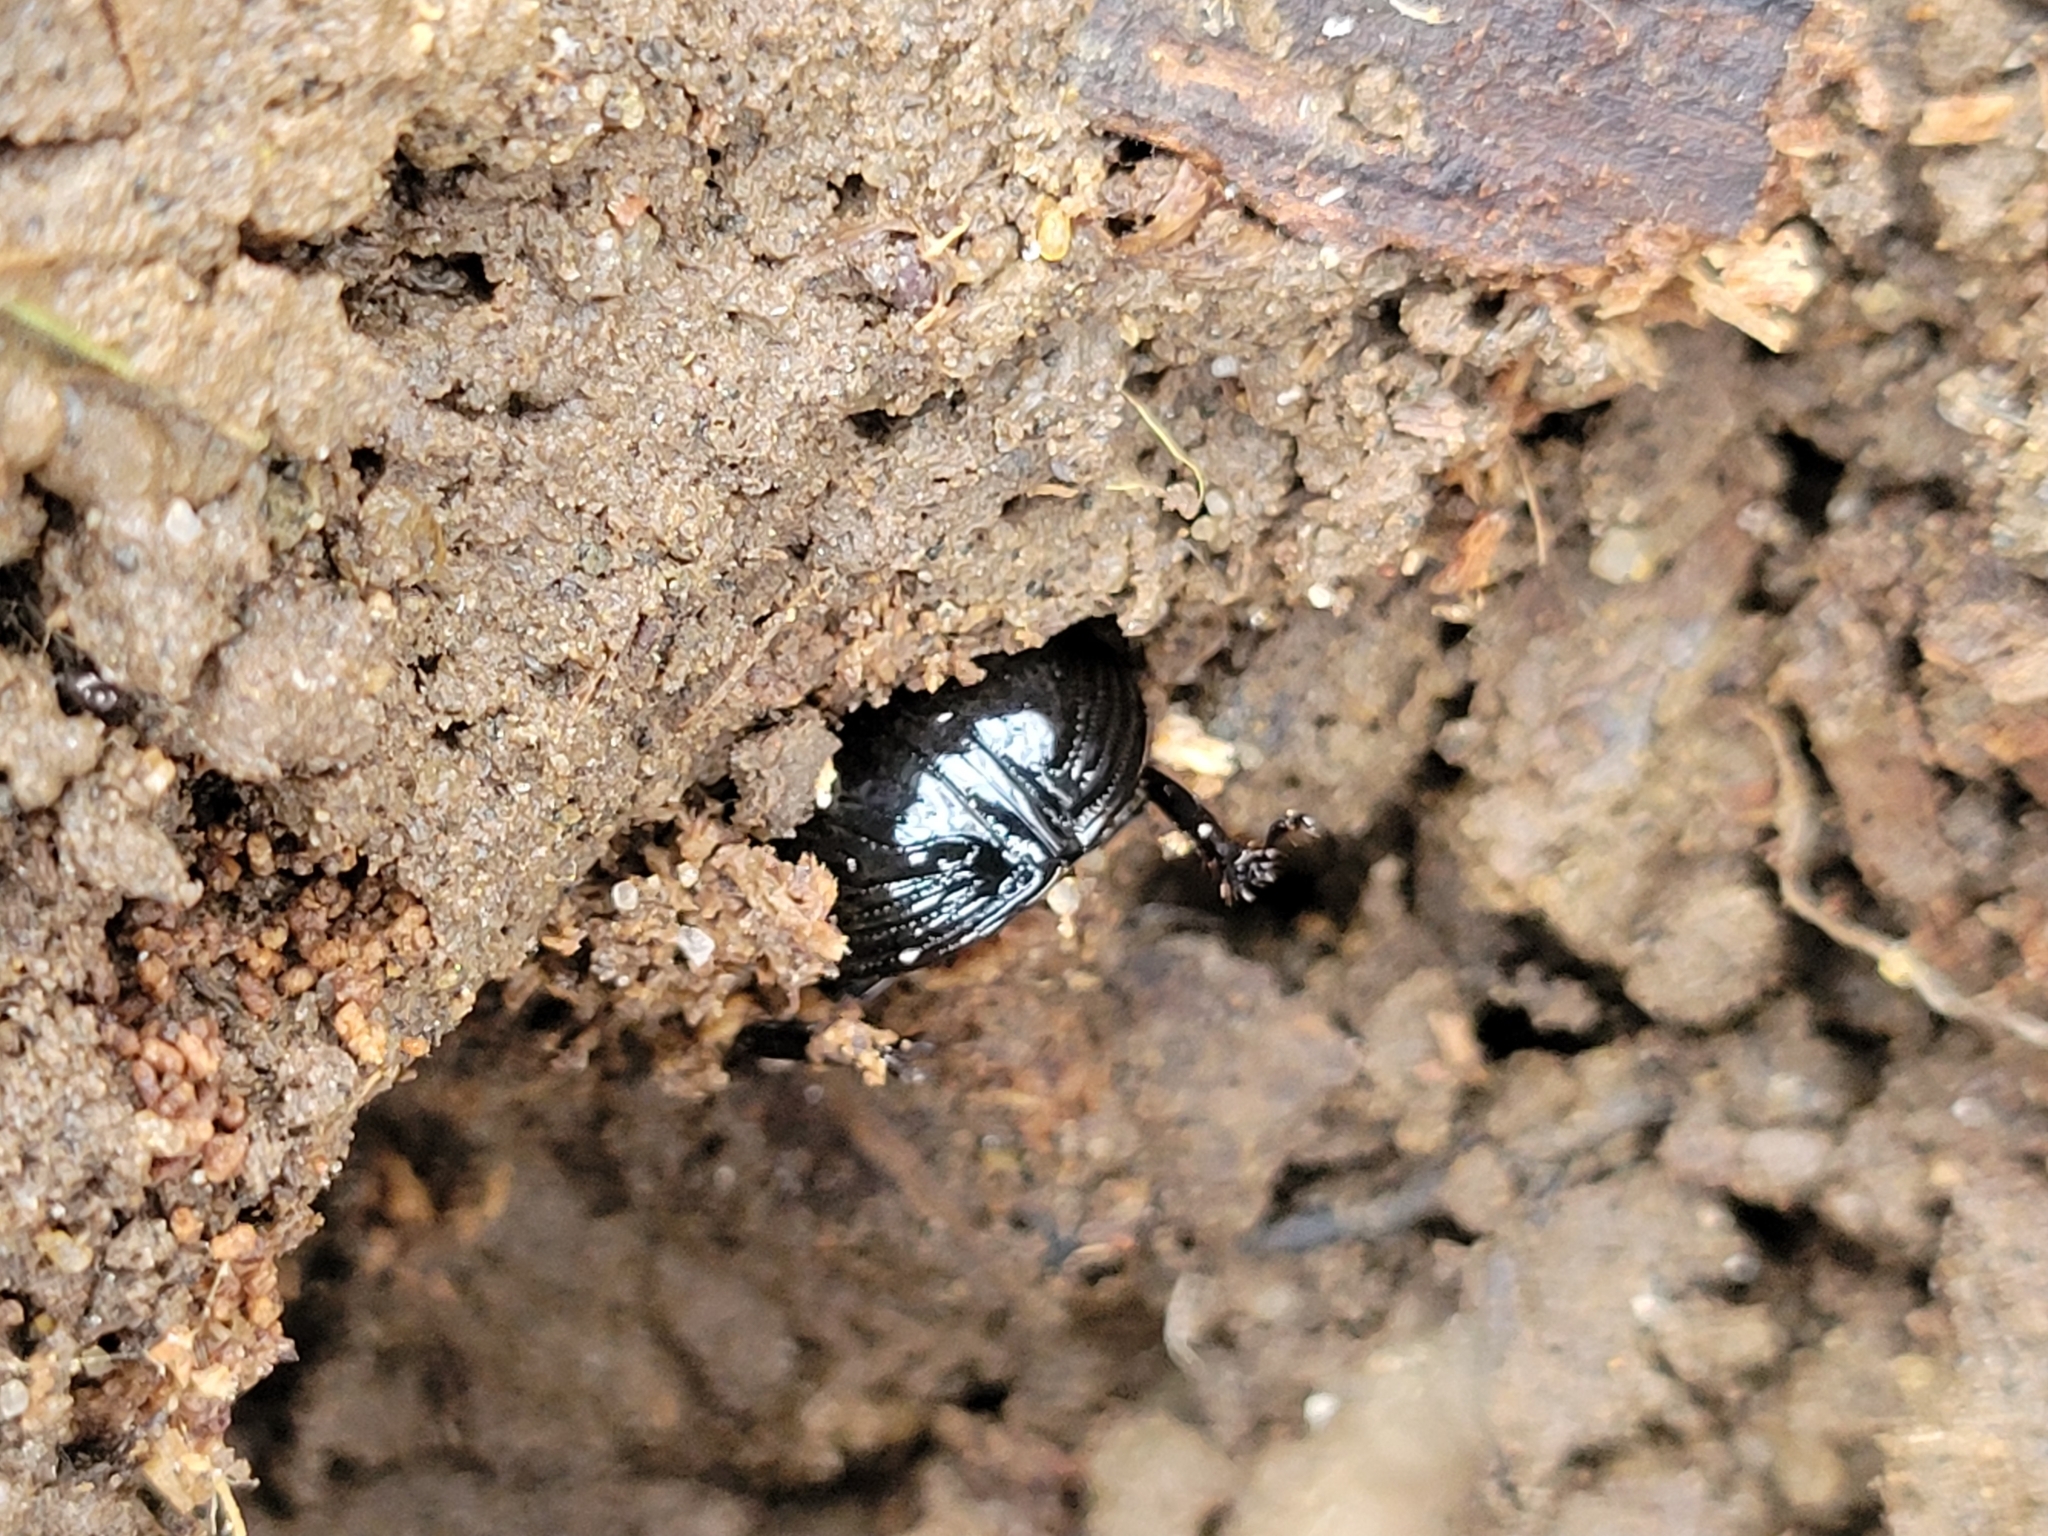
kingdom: Animalia
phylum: Arthropoda
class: Insecta
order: Coleoptera
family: Passalidae
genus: Odontotaenius
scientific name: Odontotaenius disjunctus
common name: Patent leather beetle
